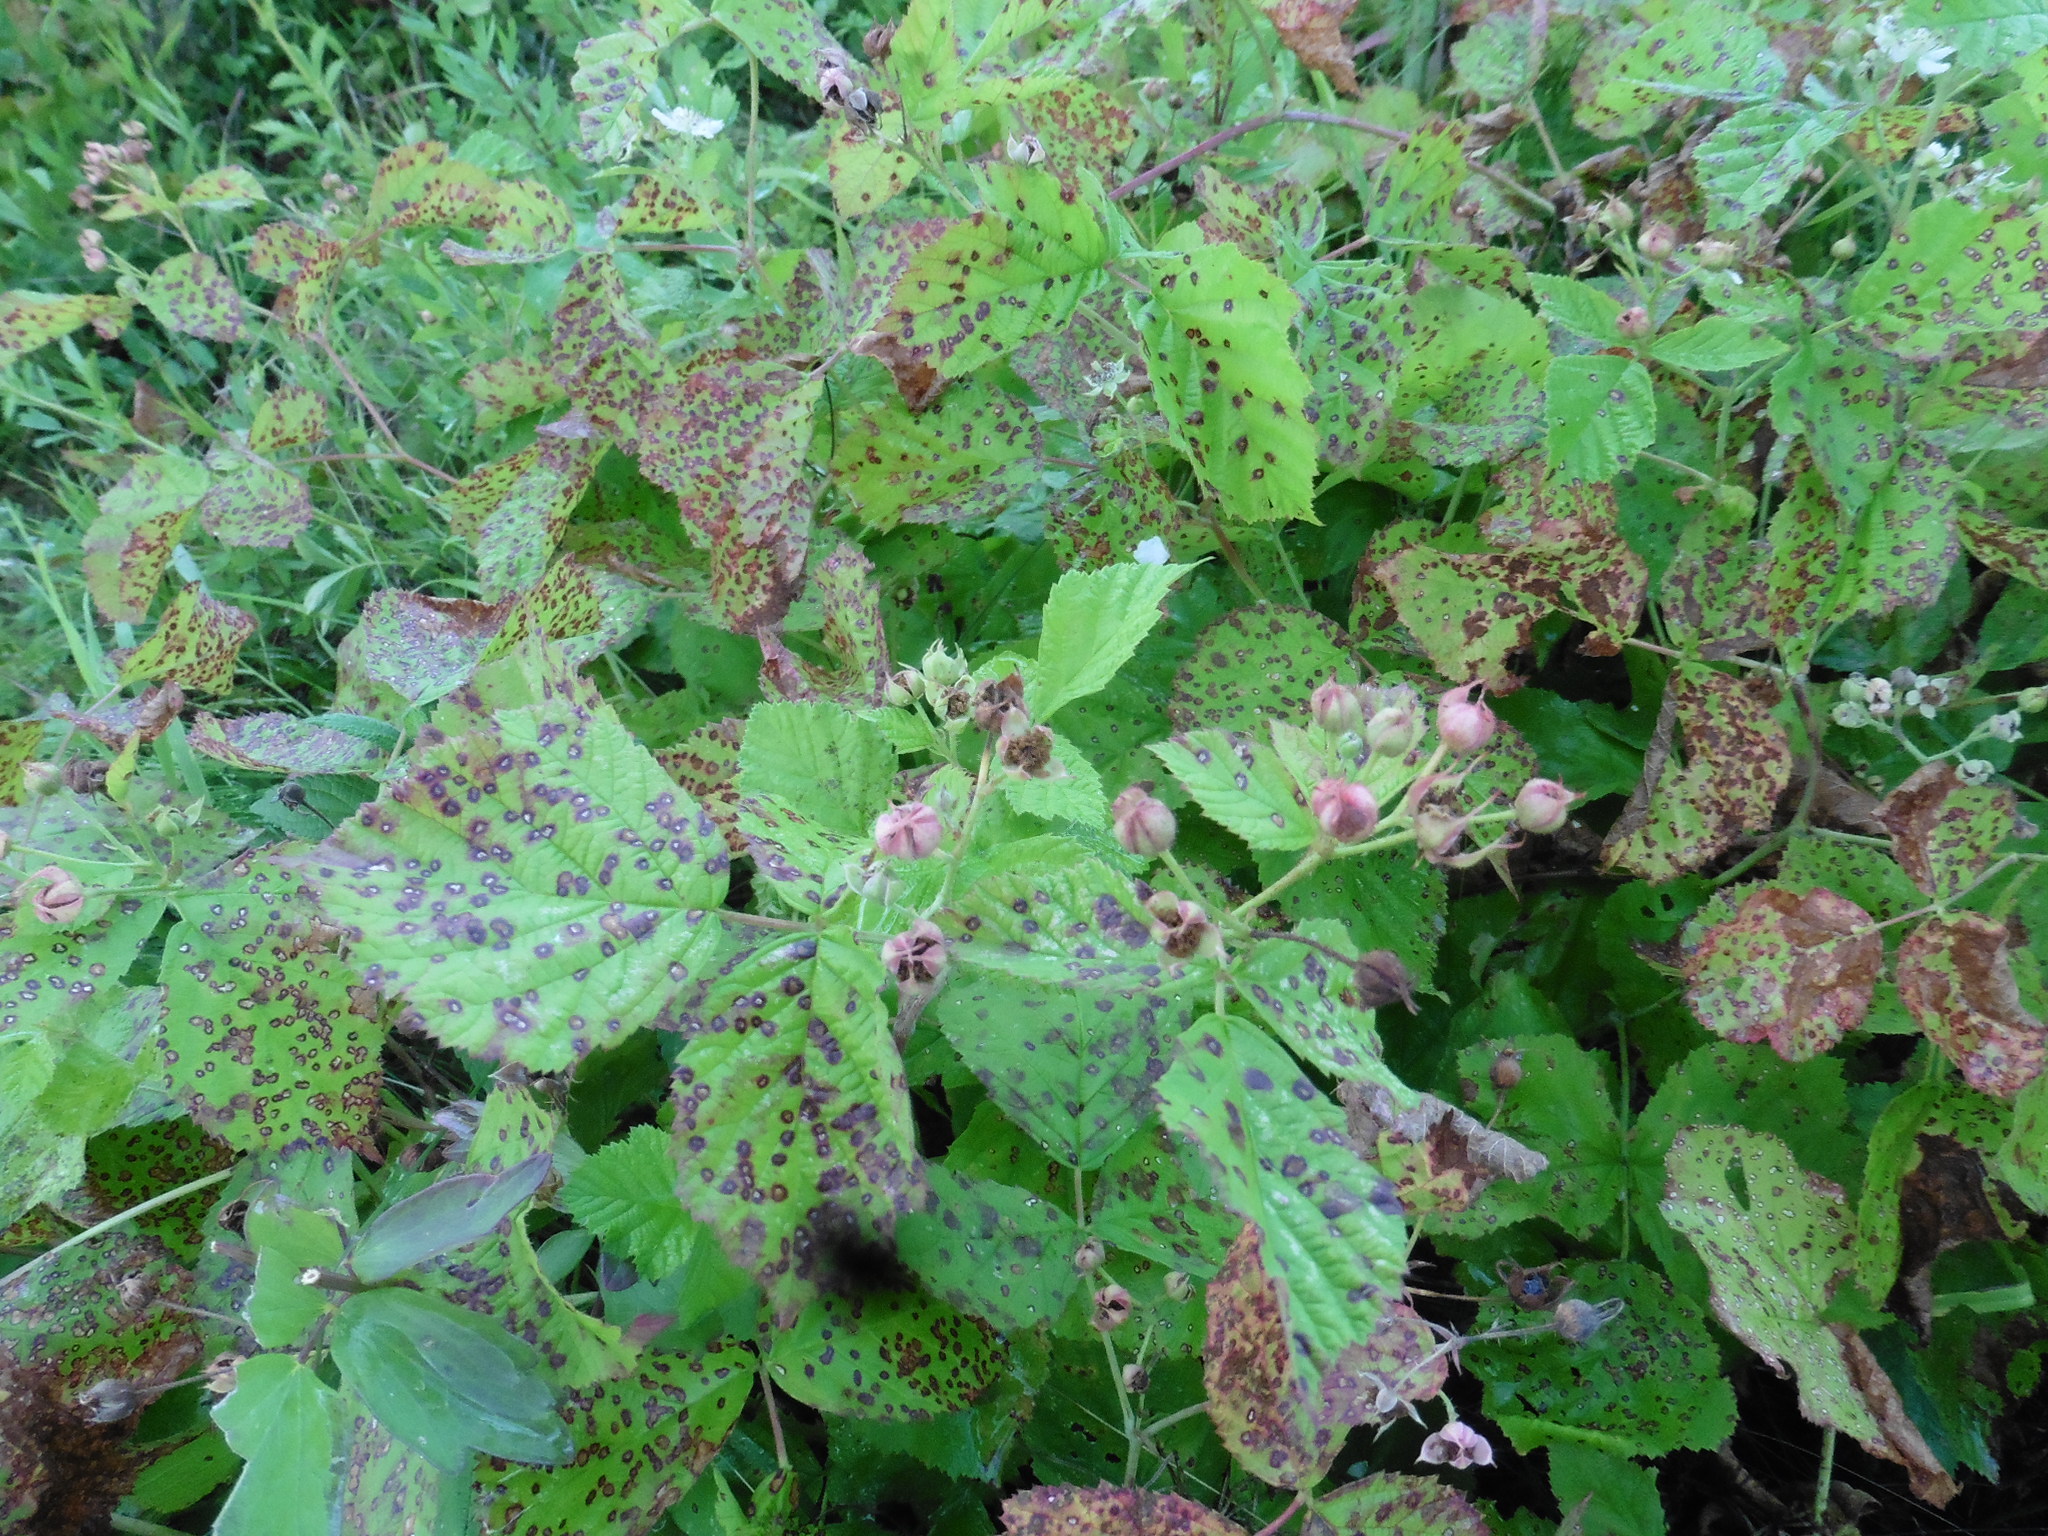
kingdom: Plantae
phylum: Tracheophyta
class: Magnoliopsida
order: Rosales
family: Rosaceae
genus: Rubus
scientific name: Rubus caesius
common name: Dewberry
